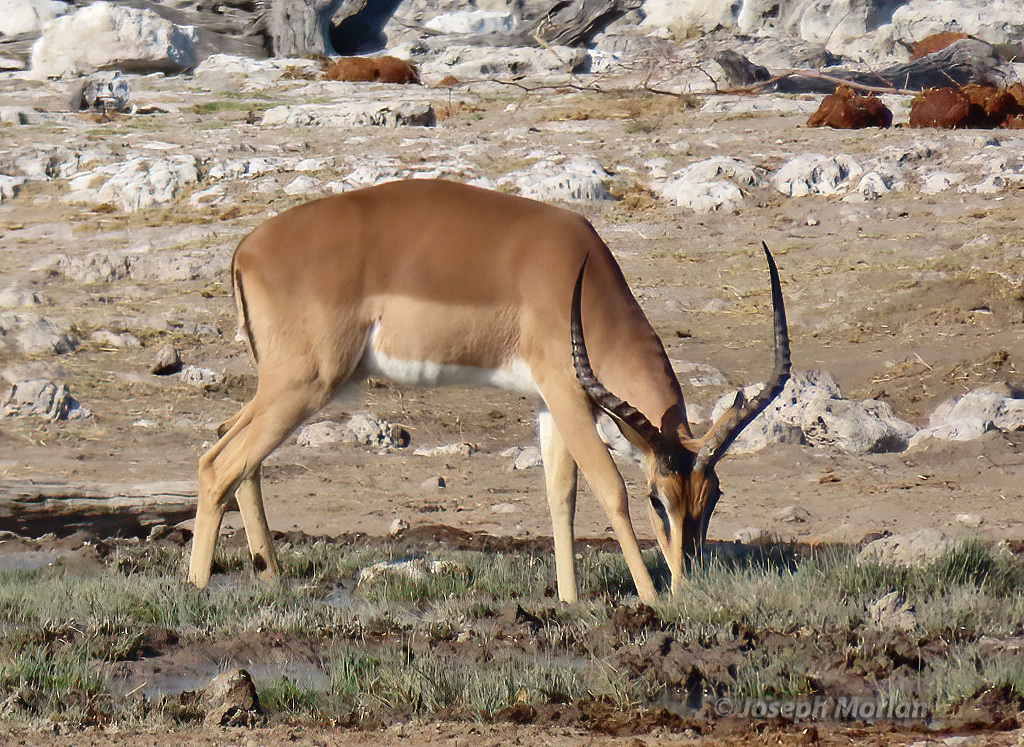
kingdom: Animalia
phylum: Chordata
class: Mammalia
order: Artiodactyla
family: Bovidae
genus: Aepyceros
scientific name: Aepyceros melampus
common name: Impala
